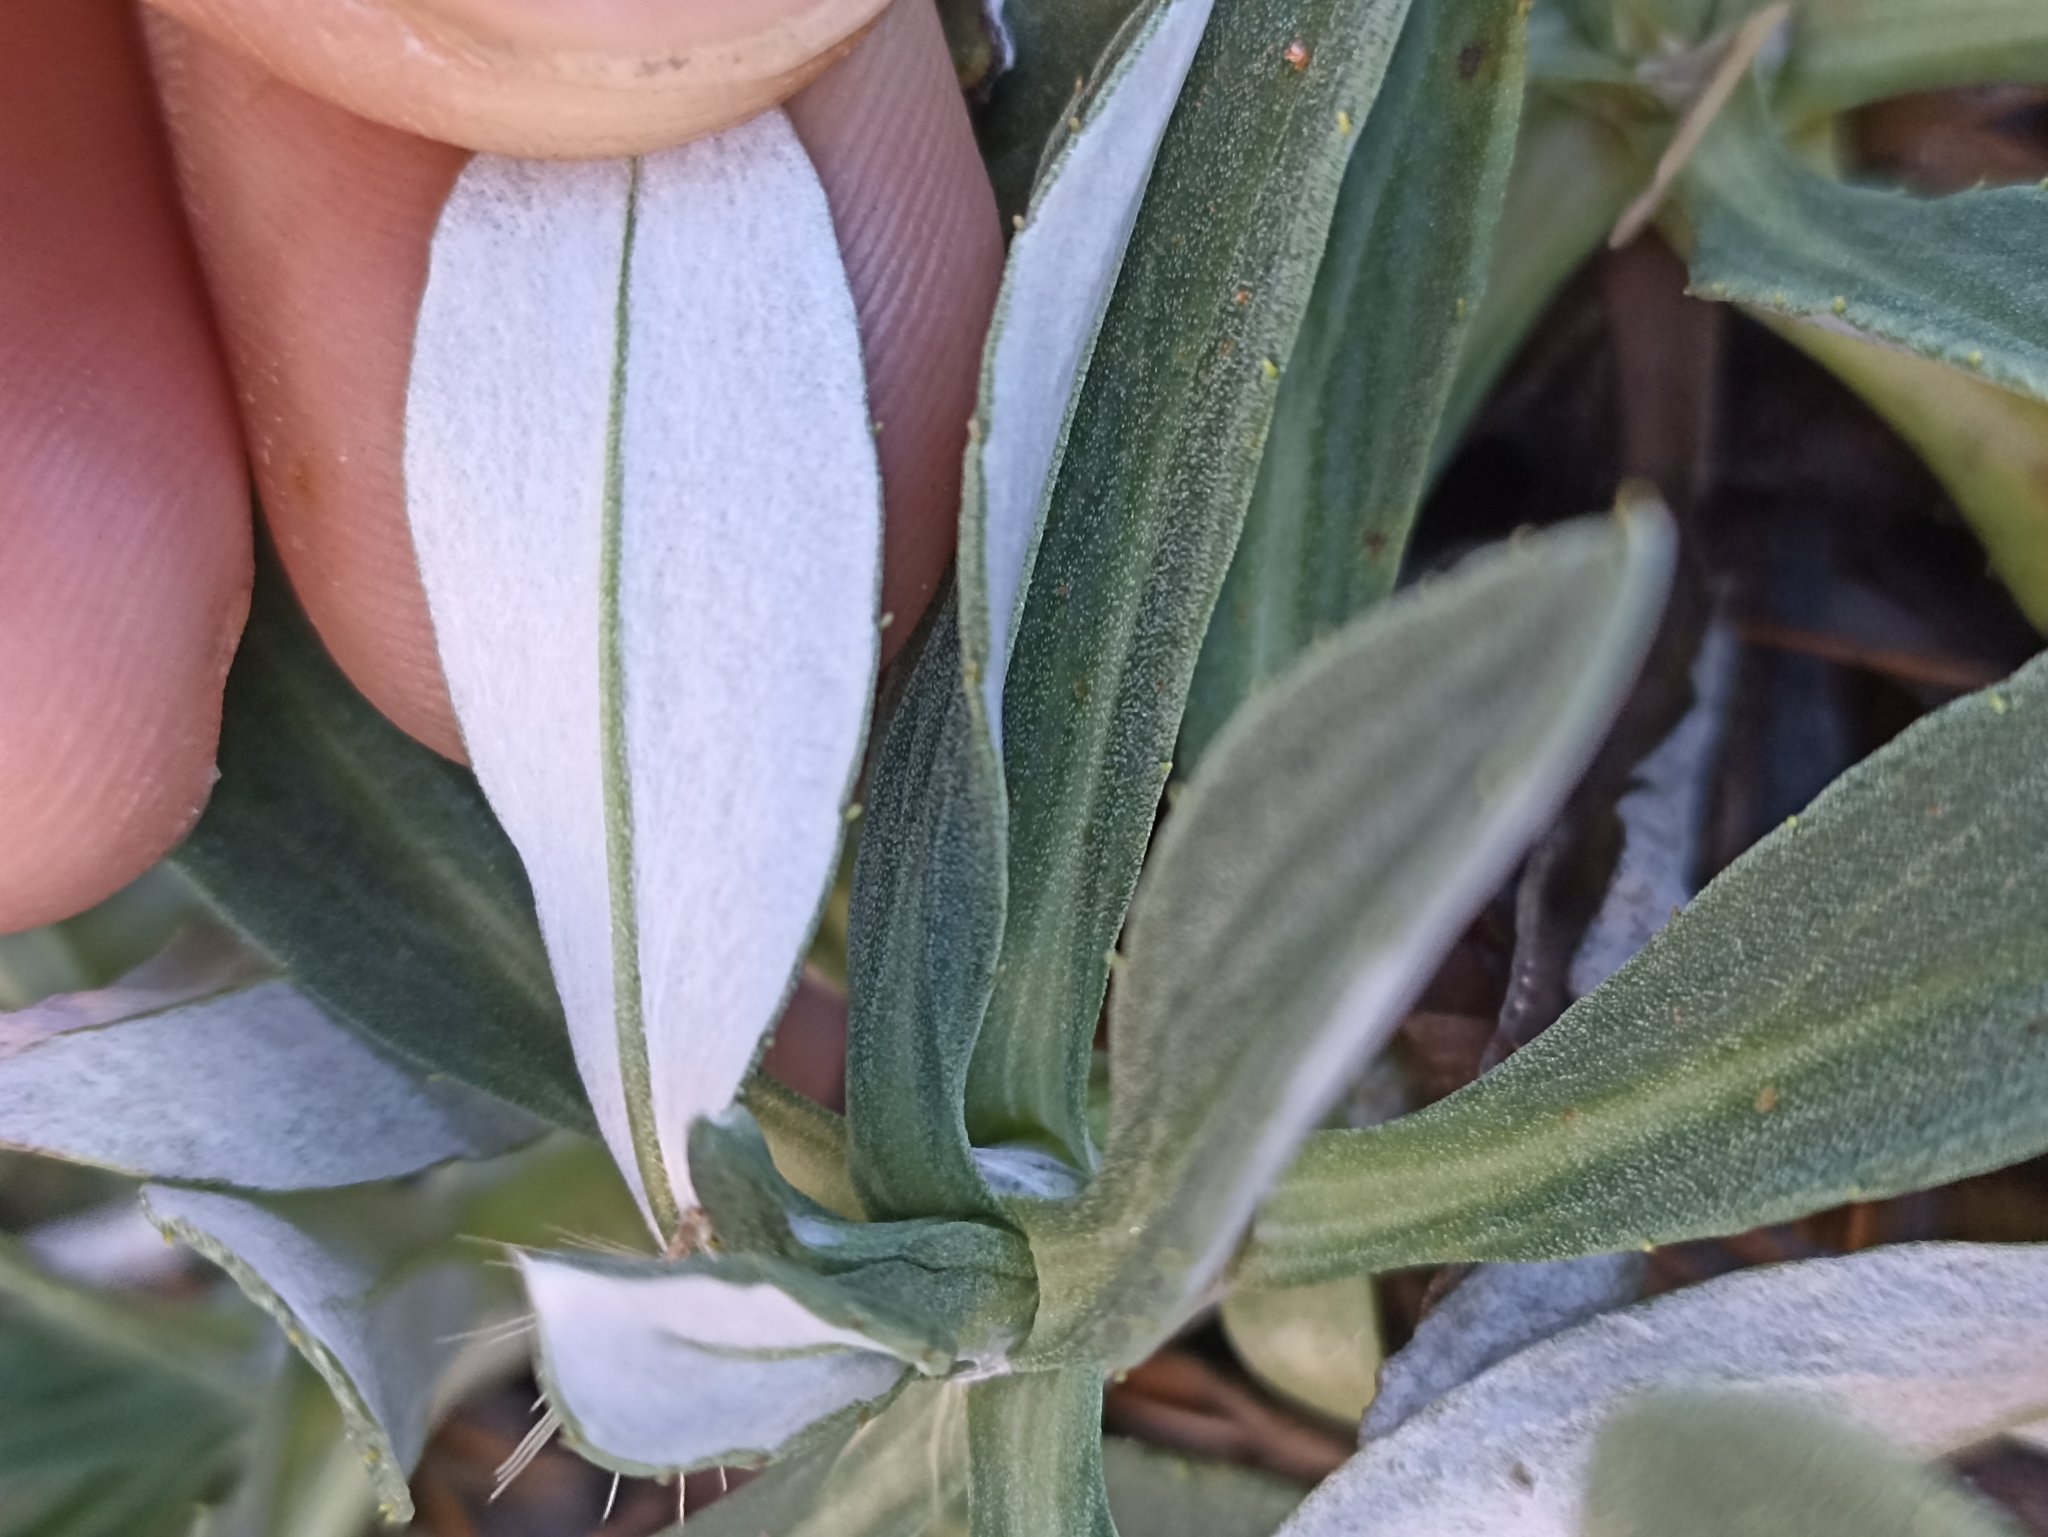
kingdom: Plantae
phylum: Tracheophyta
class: Magnoliopsida
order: Asterales
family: Asteraceae
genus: Celmisia
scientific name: Celmisia durietzii
